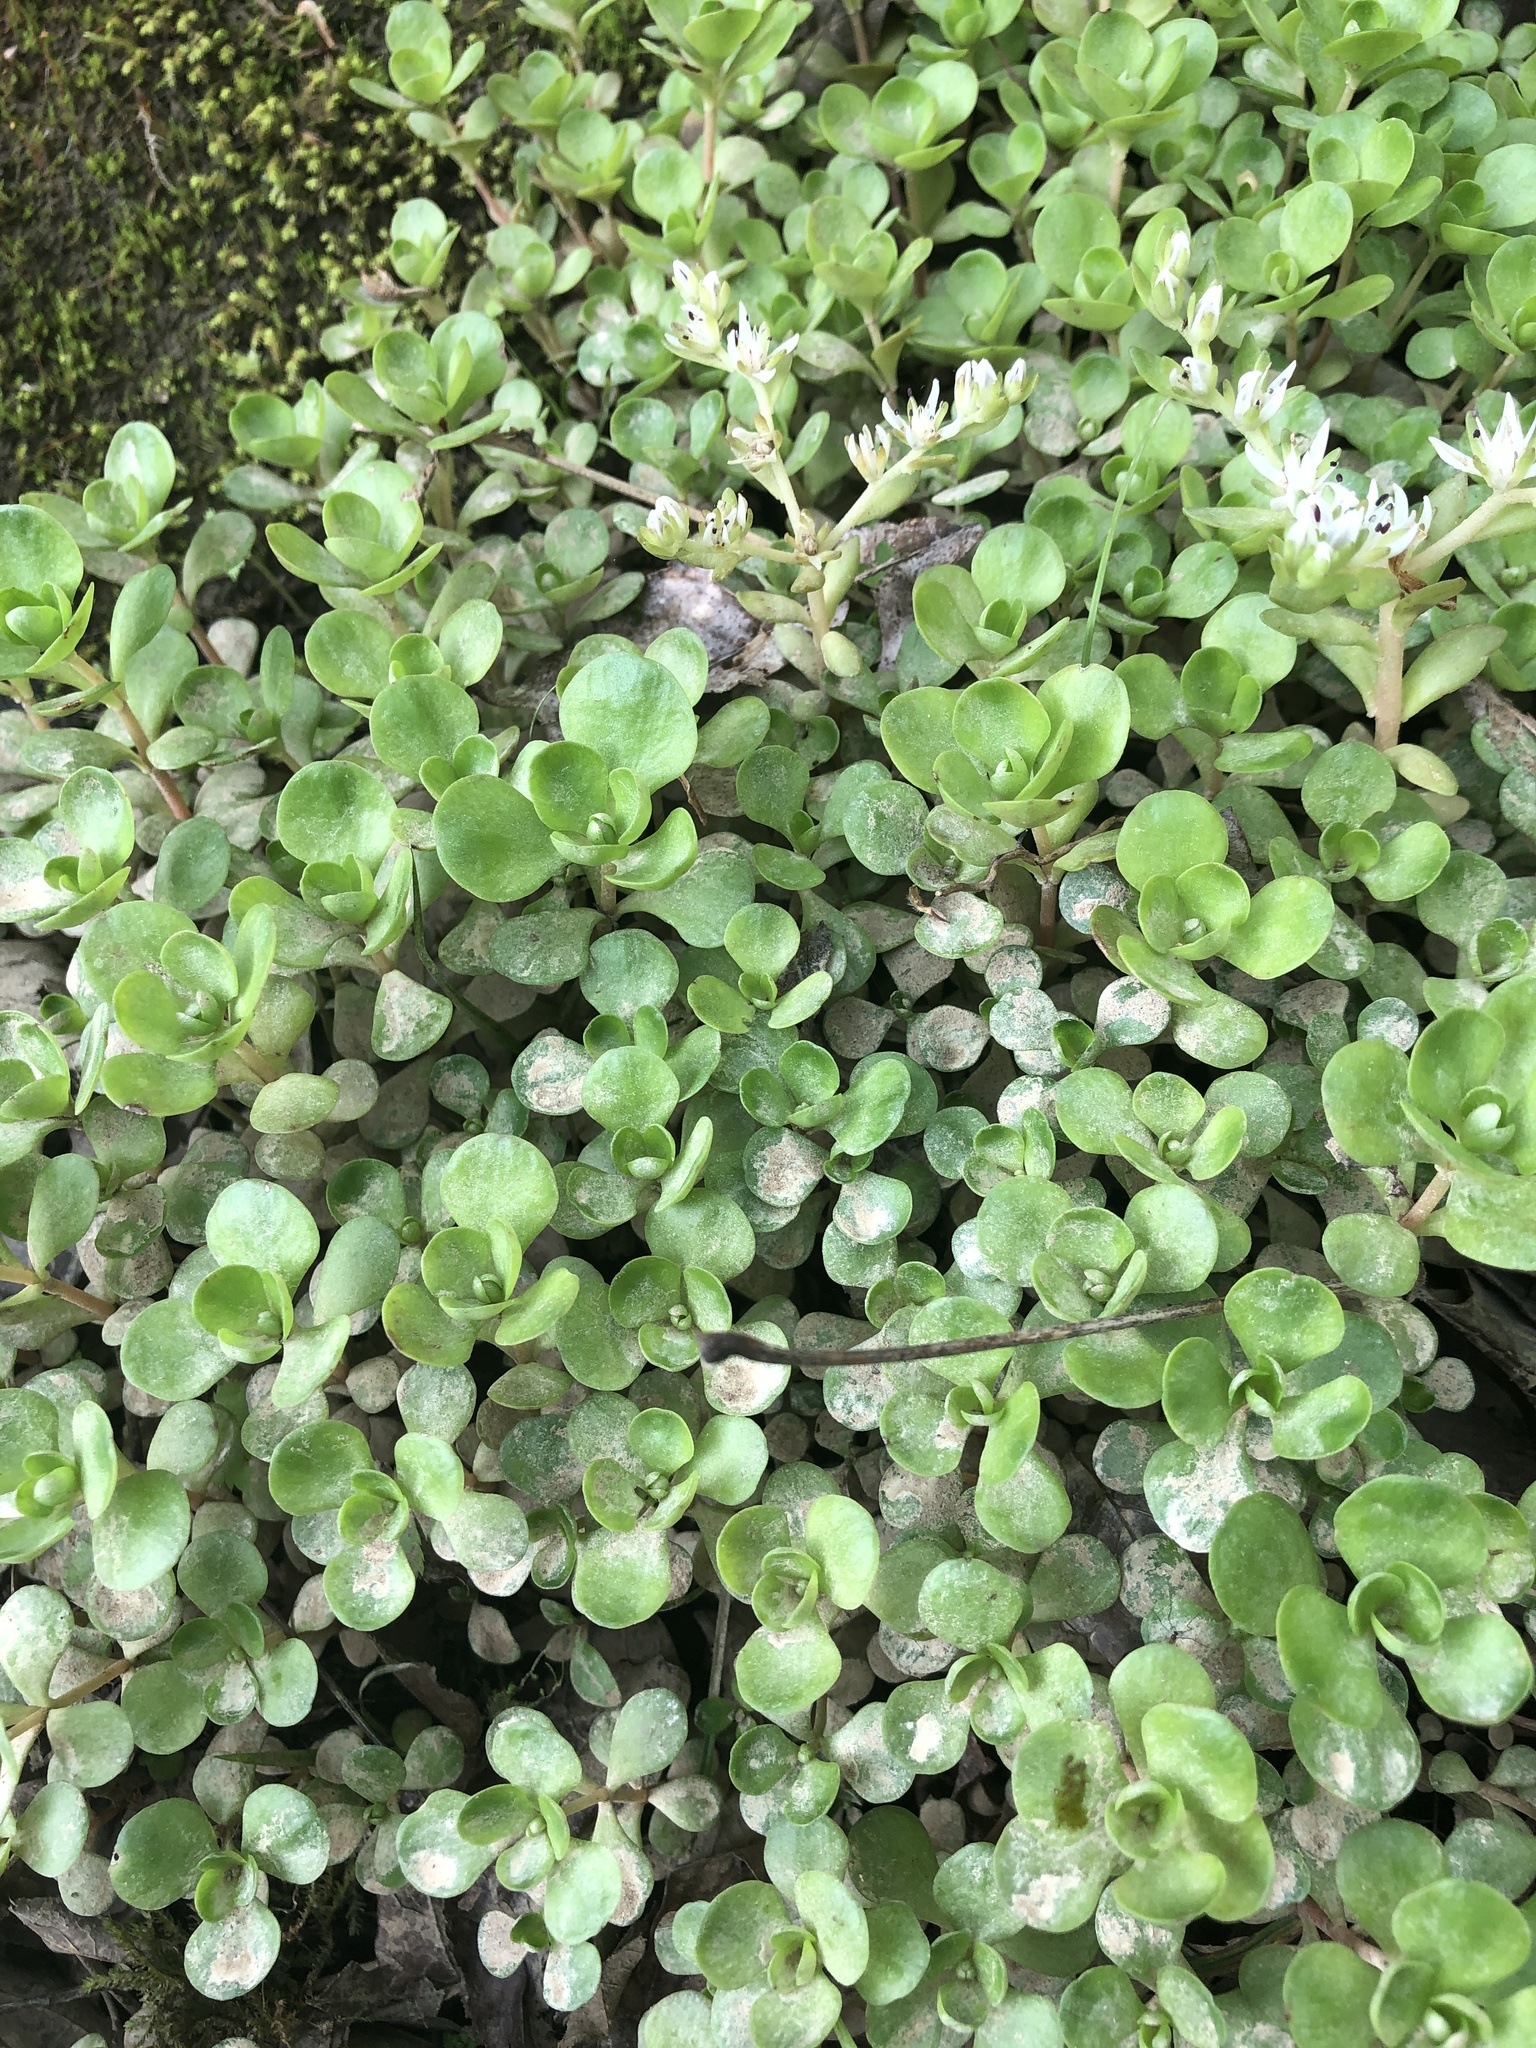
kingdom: Plantae
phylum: Tracheophyta
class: Magnoliopsida
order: Saxifragales
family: Crassulaceae
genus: Sedum
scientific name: Sedum ternatum
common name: Wild stonecrop
